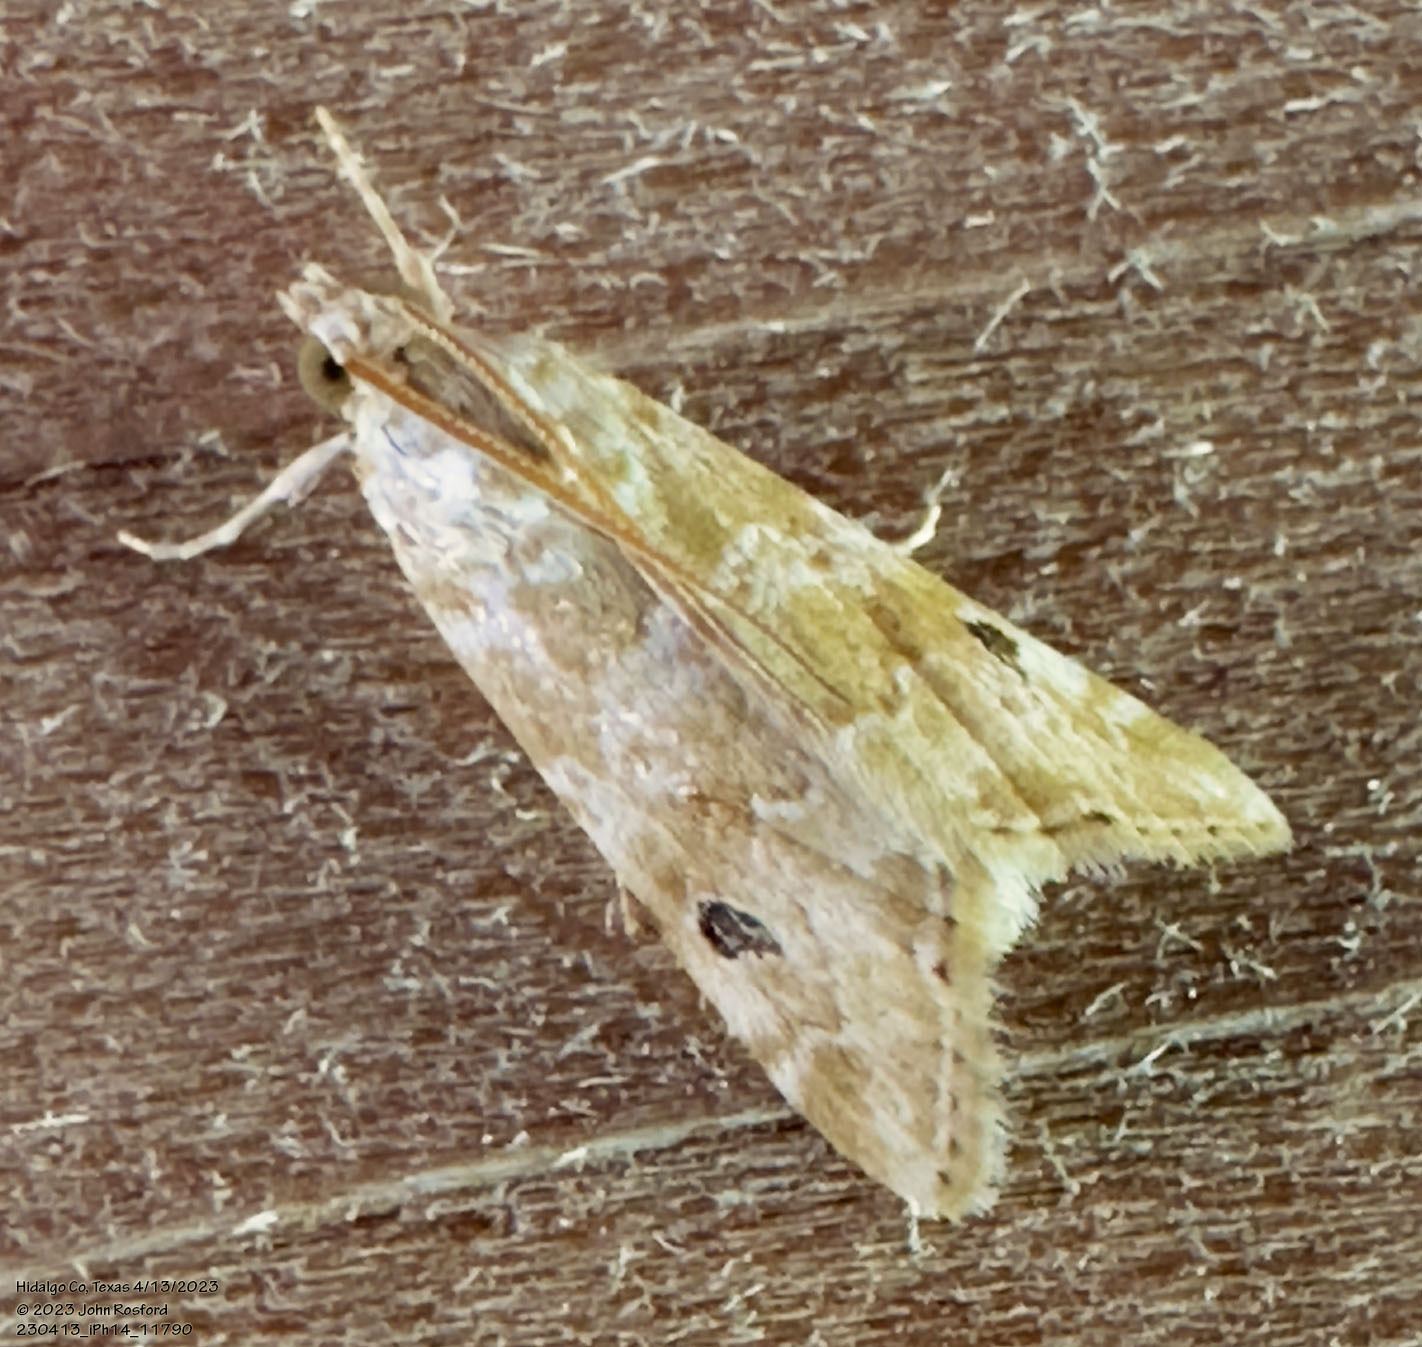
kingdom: Animalia
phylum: Arthropoda
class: Insecta
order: Lepidoptera
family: Crambidae
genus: Hellula
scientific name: Hellula phidilealis
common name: Crambid moth
